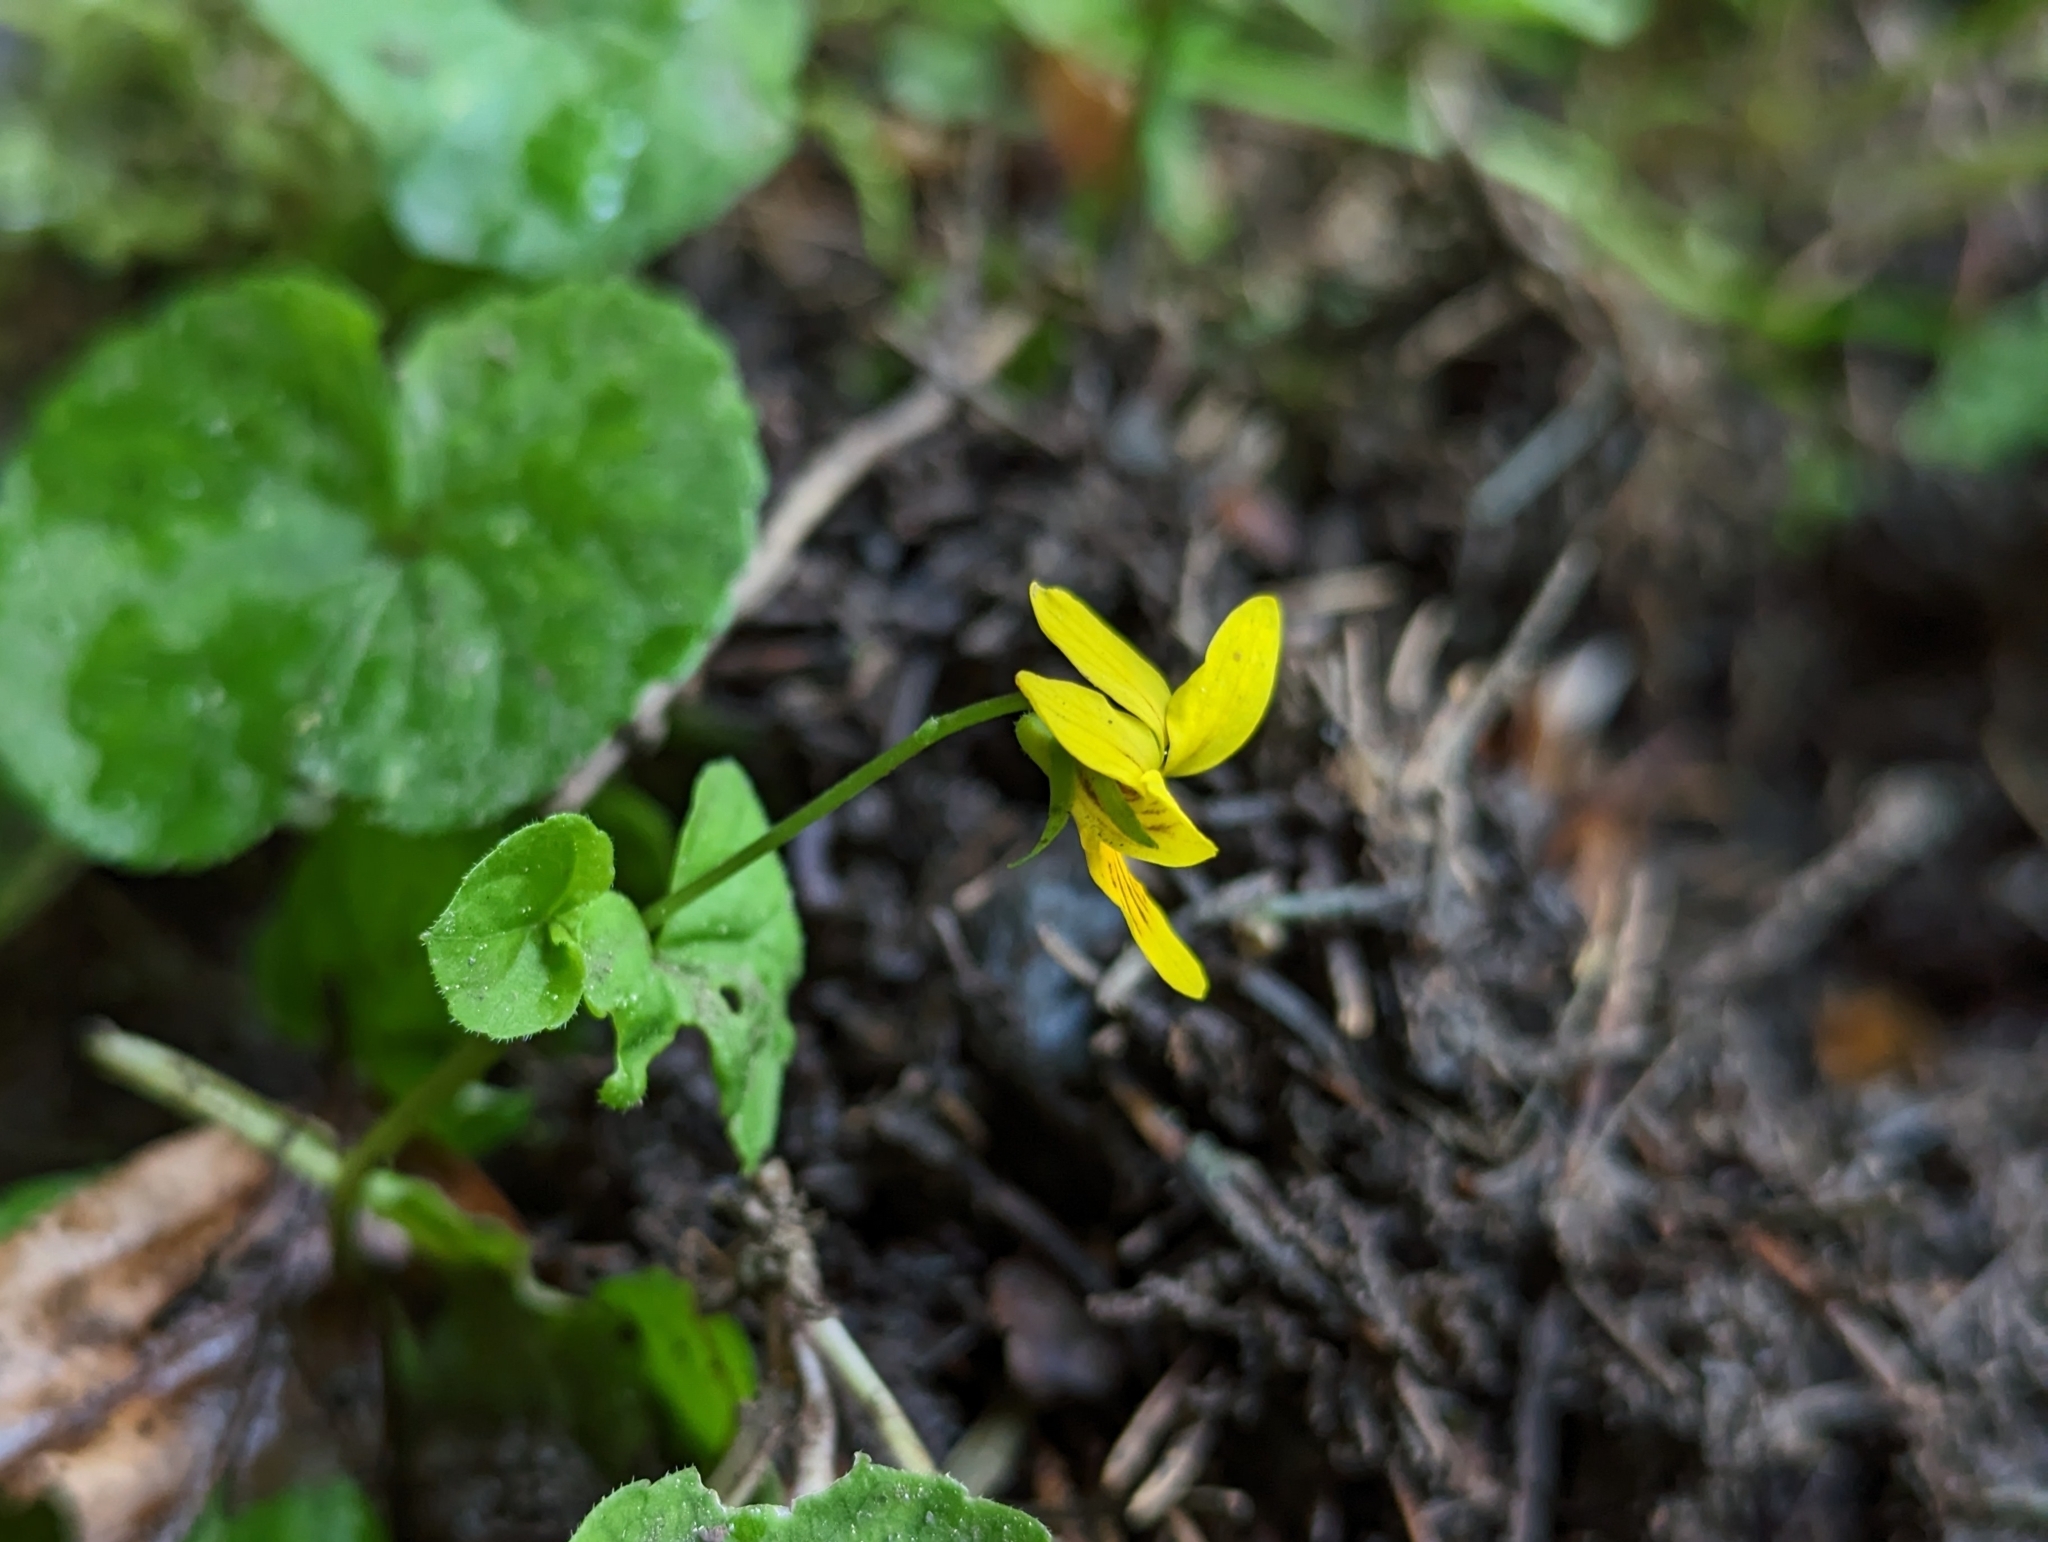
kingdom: Plantae
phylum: Tracheophyta
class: Magnoliopsida
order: Malpighiales
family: Violaceae
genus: Viola
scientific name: Viola biflora
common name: Alpine yellow violet
